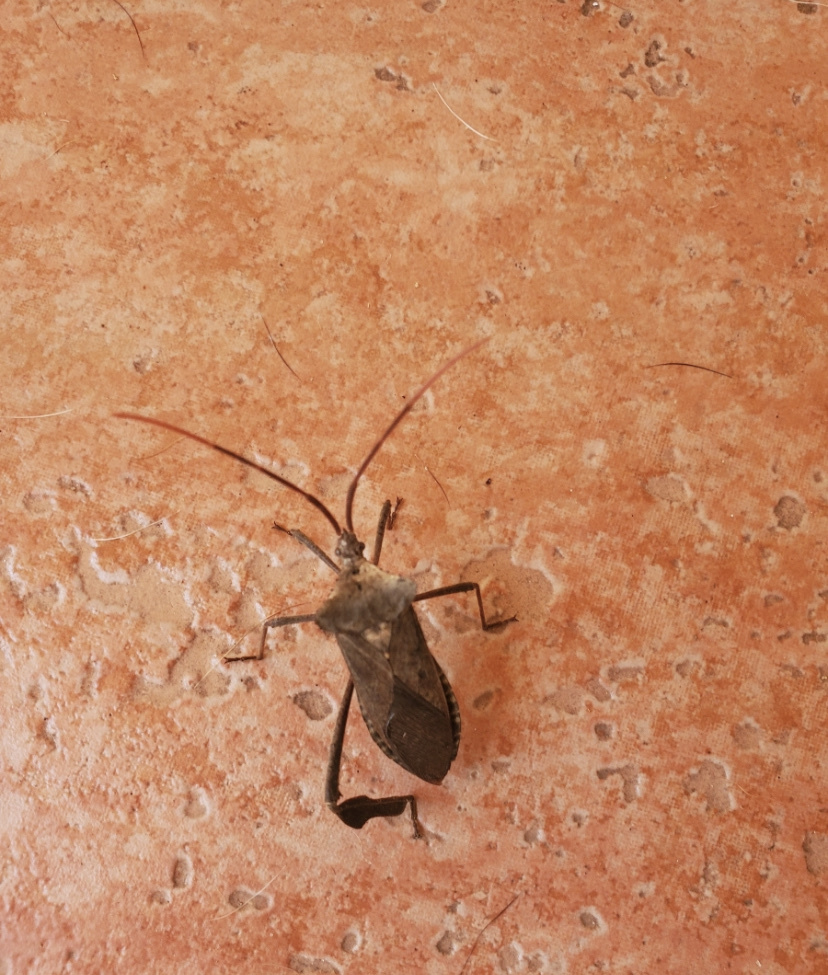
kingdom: Animalia
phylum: Arthropoda
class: Insecta
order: Hemiptera
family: Coreidae
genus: Acanthocephala
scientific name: Acanthocephala declivis
